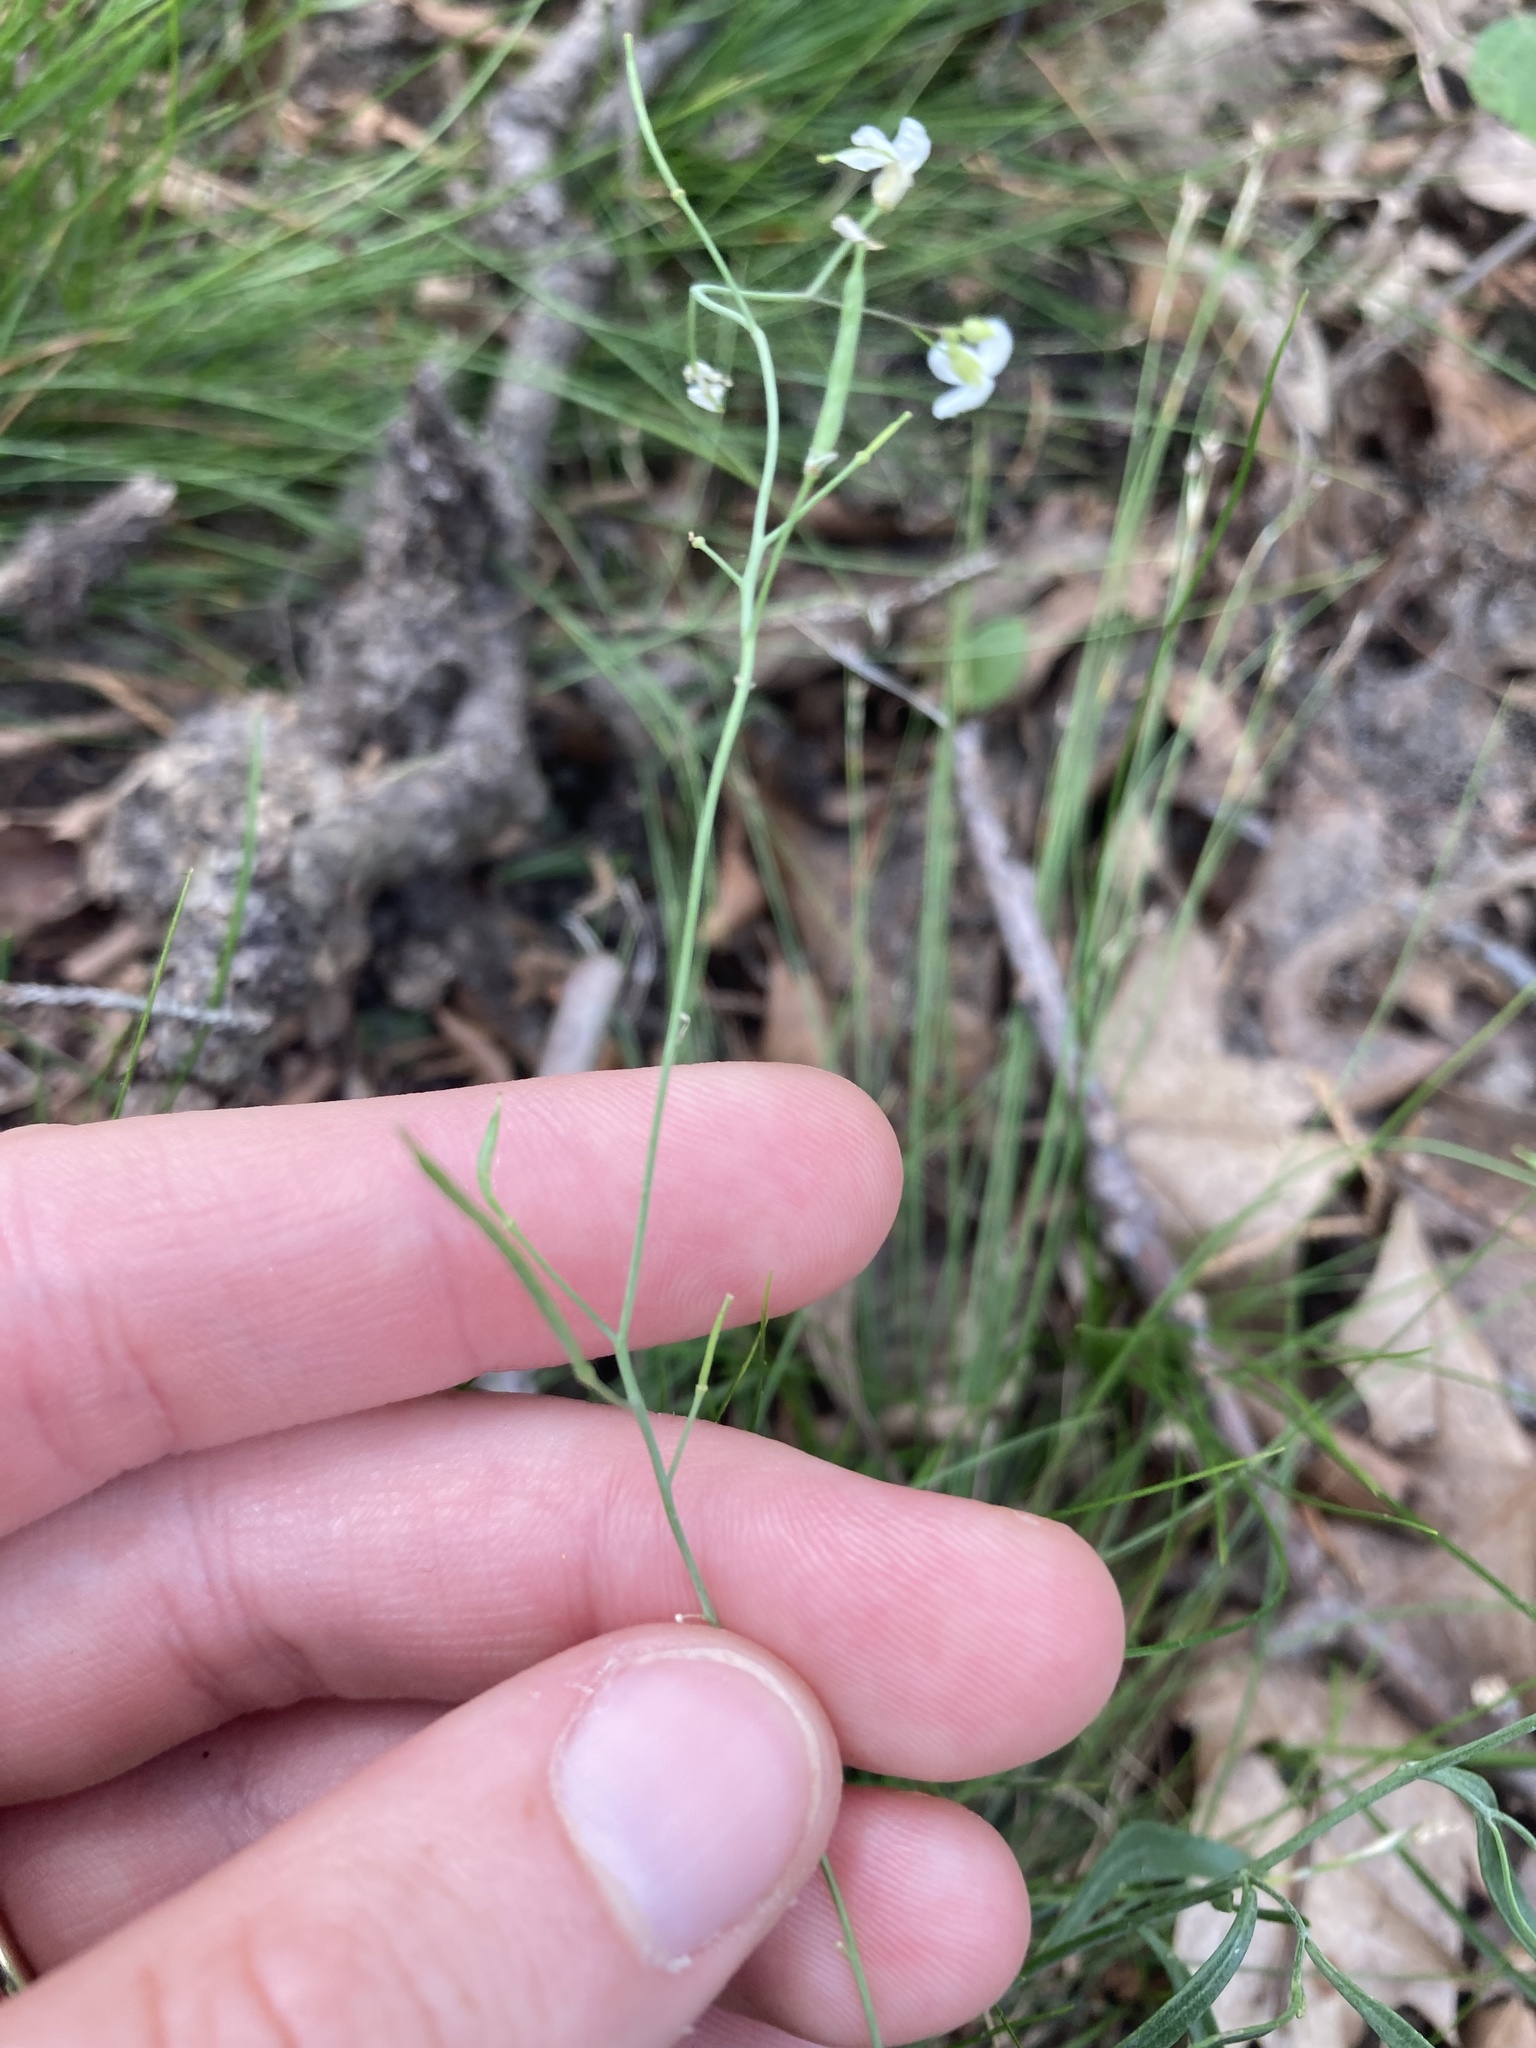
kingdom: Plantae
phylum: Tracheophyta
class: Magnoliopsida
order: Brassicales
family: Brassicaceae
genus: Arabidopsis
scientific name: Arabidopsis lyrata
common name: Lyrate rockcress
